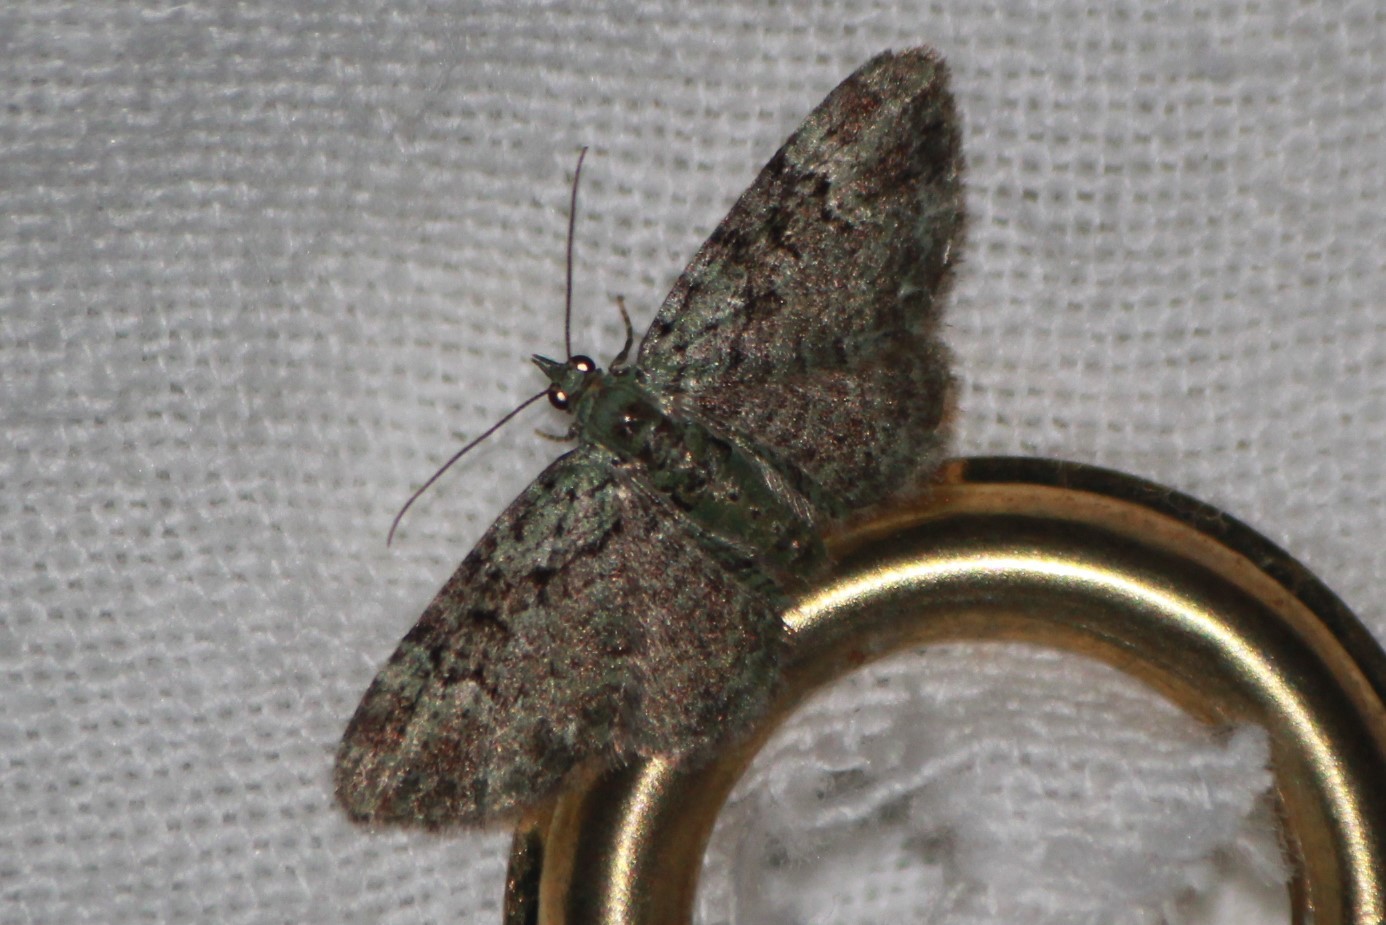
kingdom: Animalia
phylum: Arthropoda
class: Insecta
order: Lepidoptera
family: Geometridae
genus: Pasiphila
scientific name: Pasiphila rectangulata
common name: Green pug
